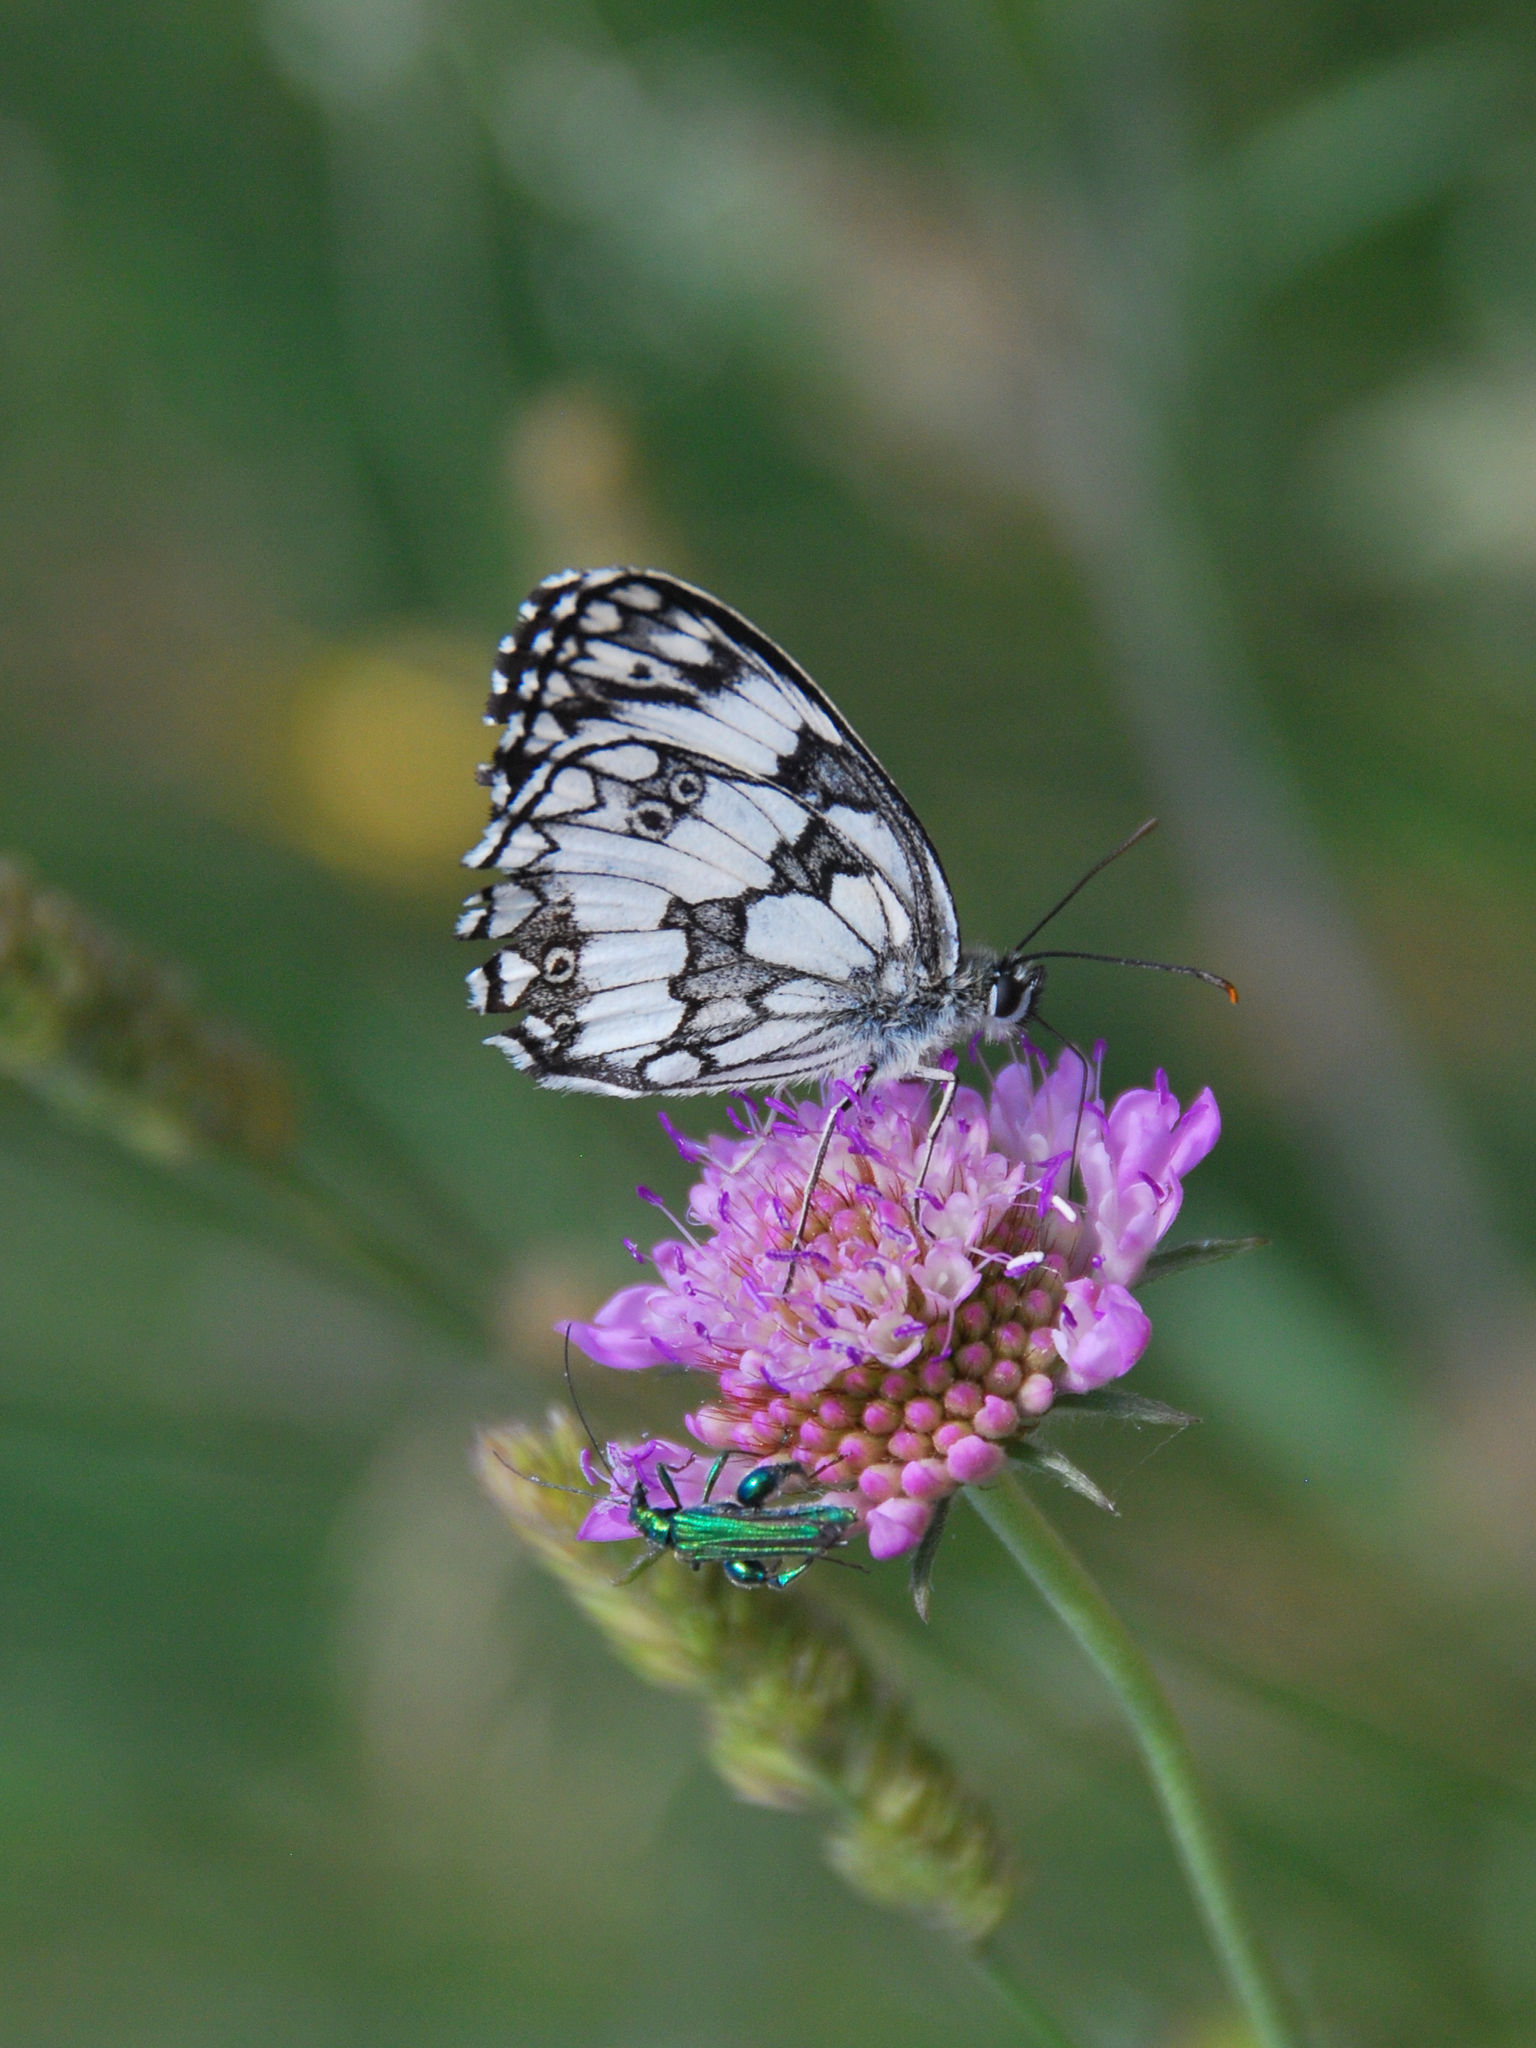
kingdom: Animalia
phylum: Arthropoda
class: Insecta
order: Lepidoptera
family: Nymphalidae
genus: Melanargia
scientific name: Melanargia galathea
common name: Marbled white
